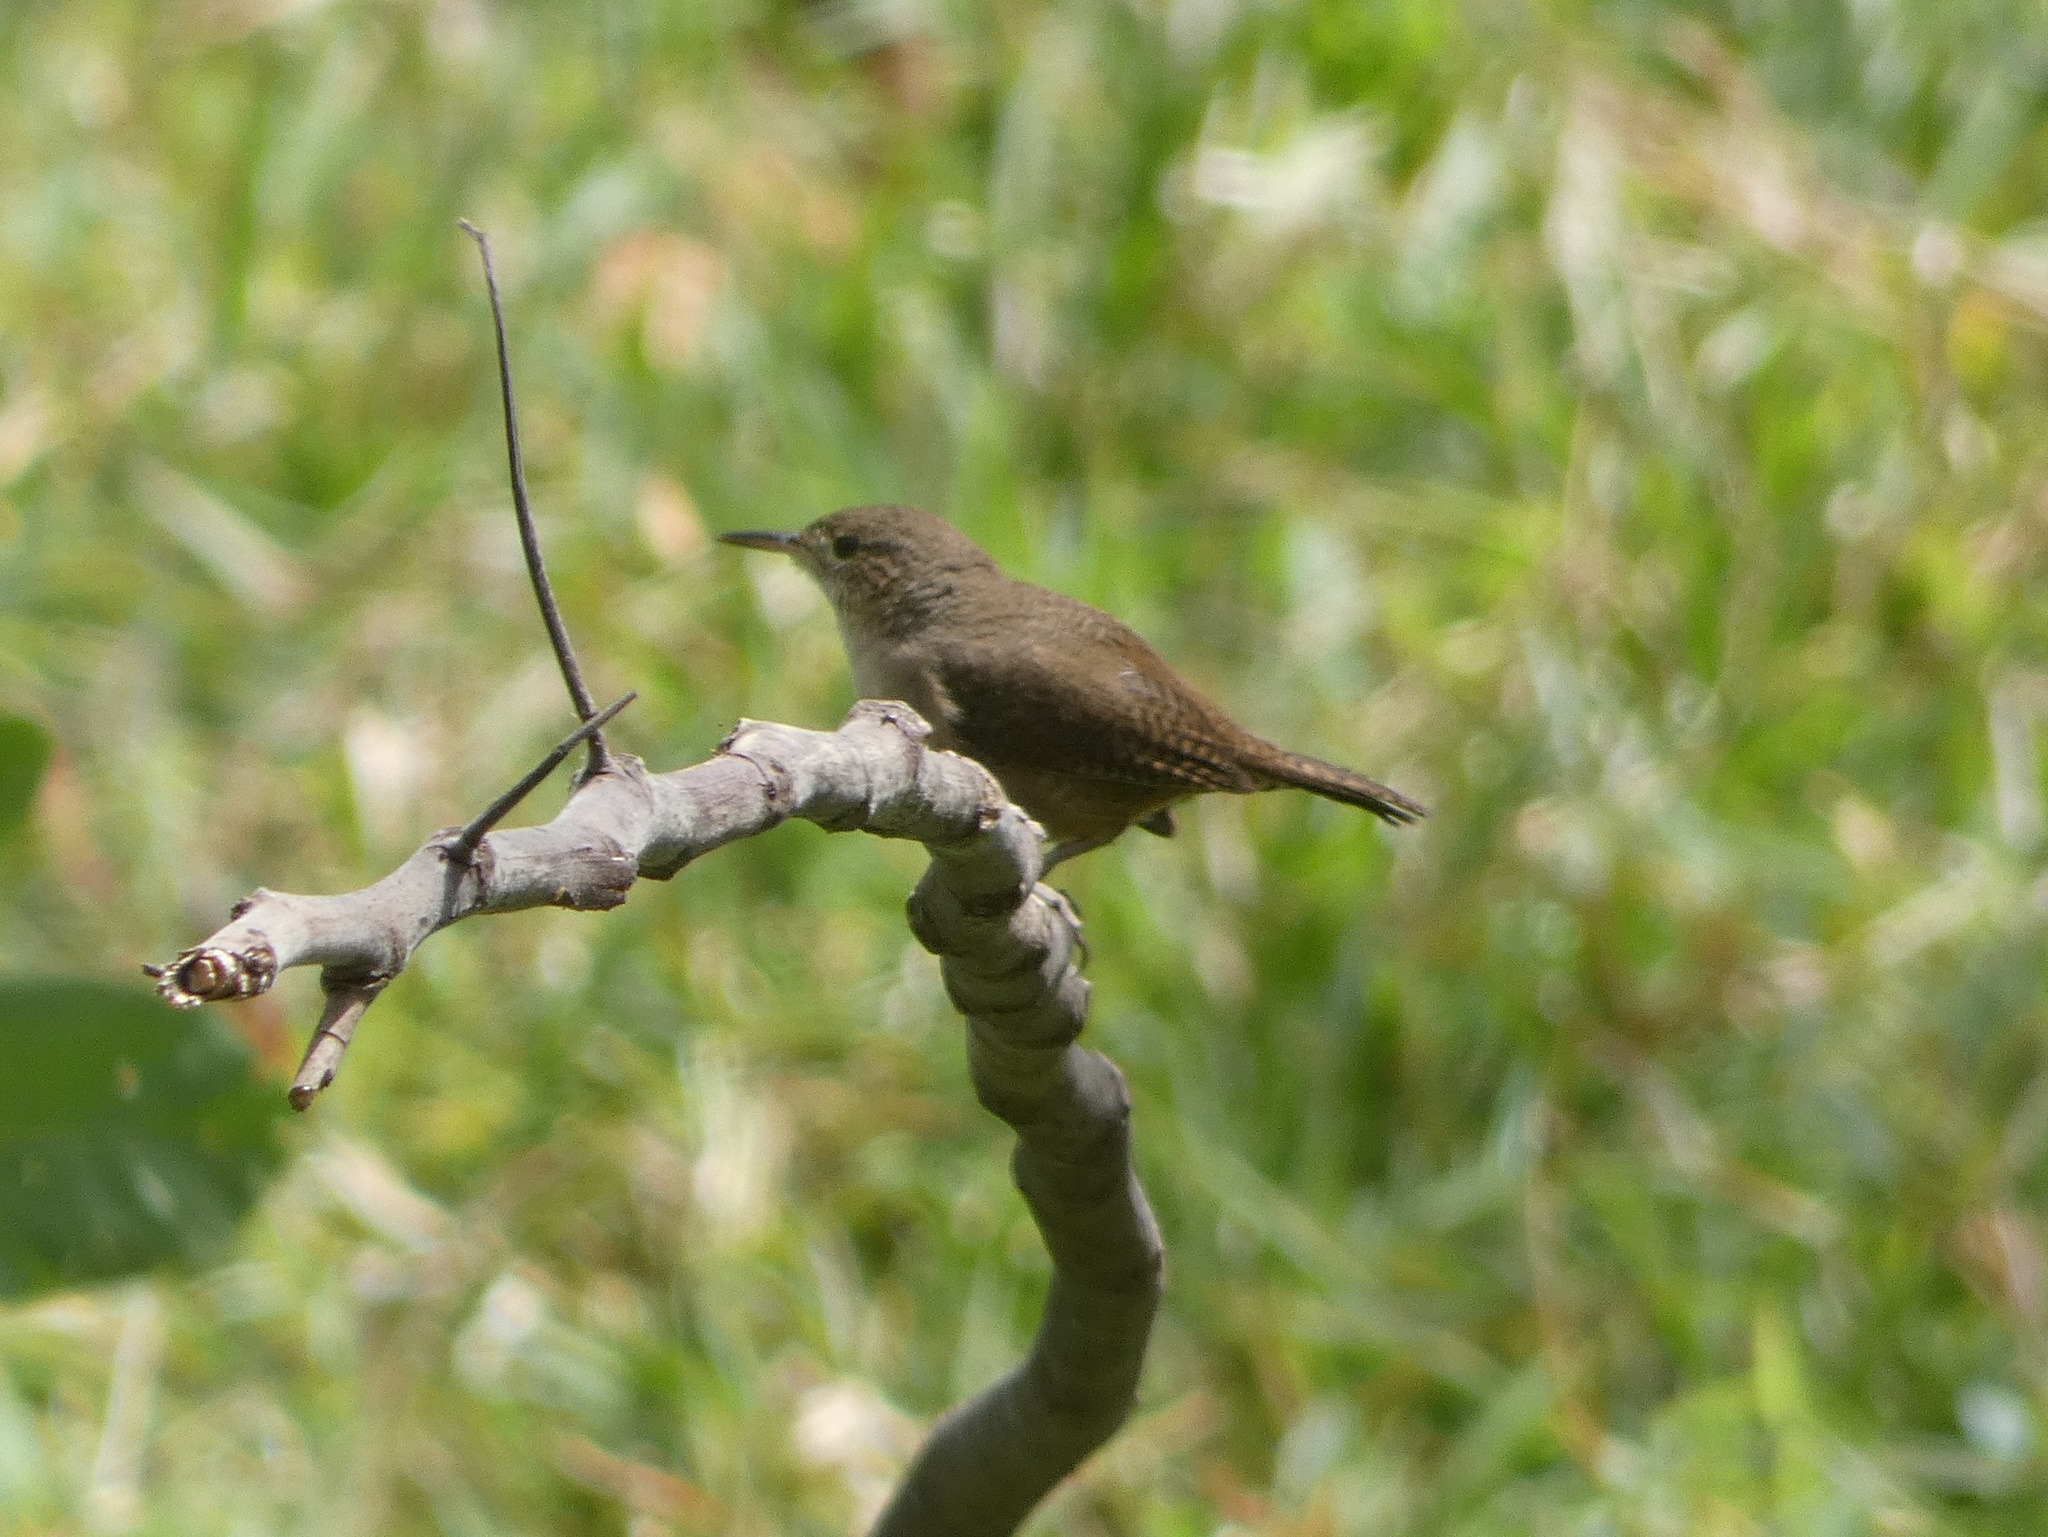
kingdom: Animalia
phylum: Chordata
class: Aves
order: Passeriformes
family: Troglodytidae
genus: Troglodytes
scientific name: Troglodytes aedon
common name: House wren
